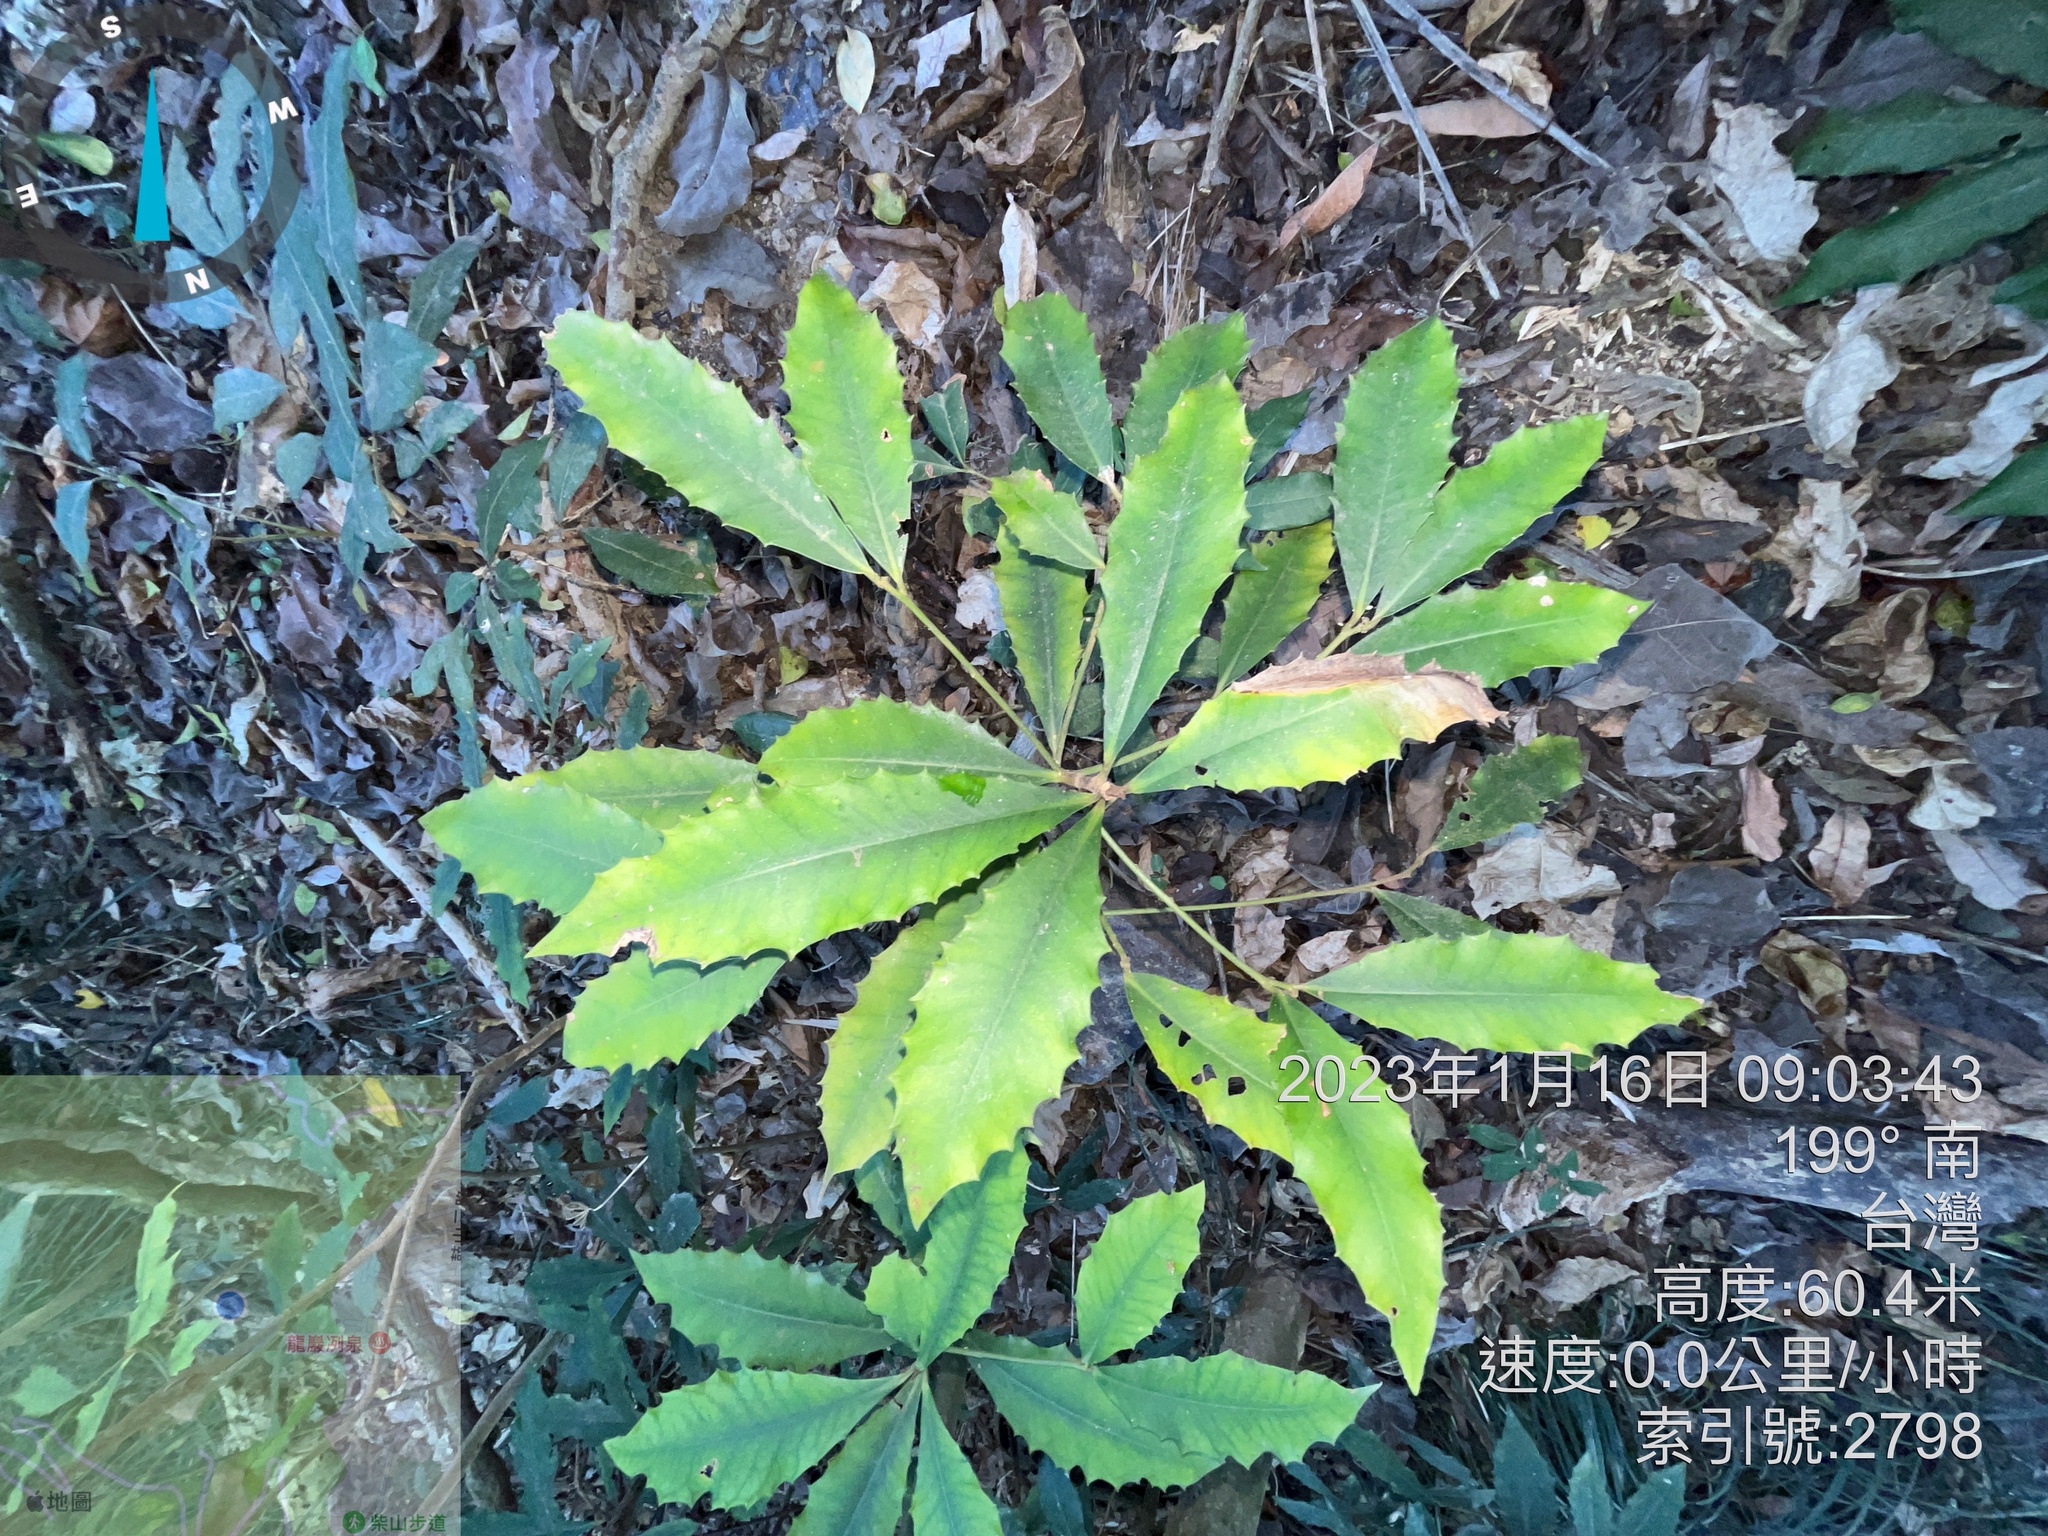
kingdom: Plantae
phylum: Tracheophyta
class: Magnoliopsida
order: Ericales
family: Primulaceae
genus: Ardisia
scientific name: Ardisia cornudentata
